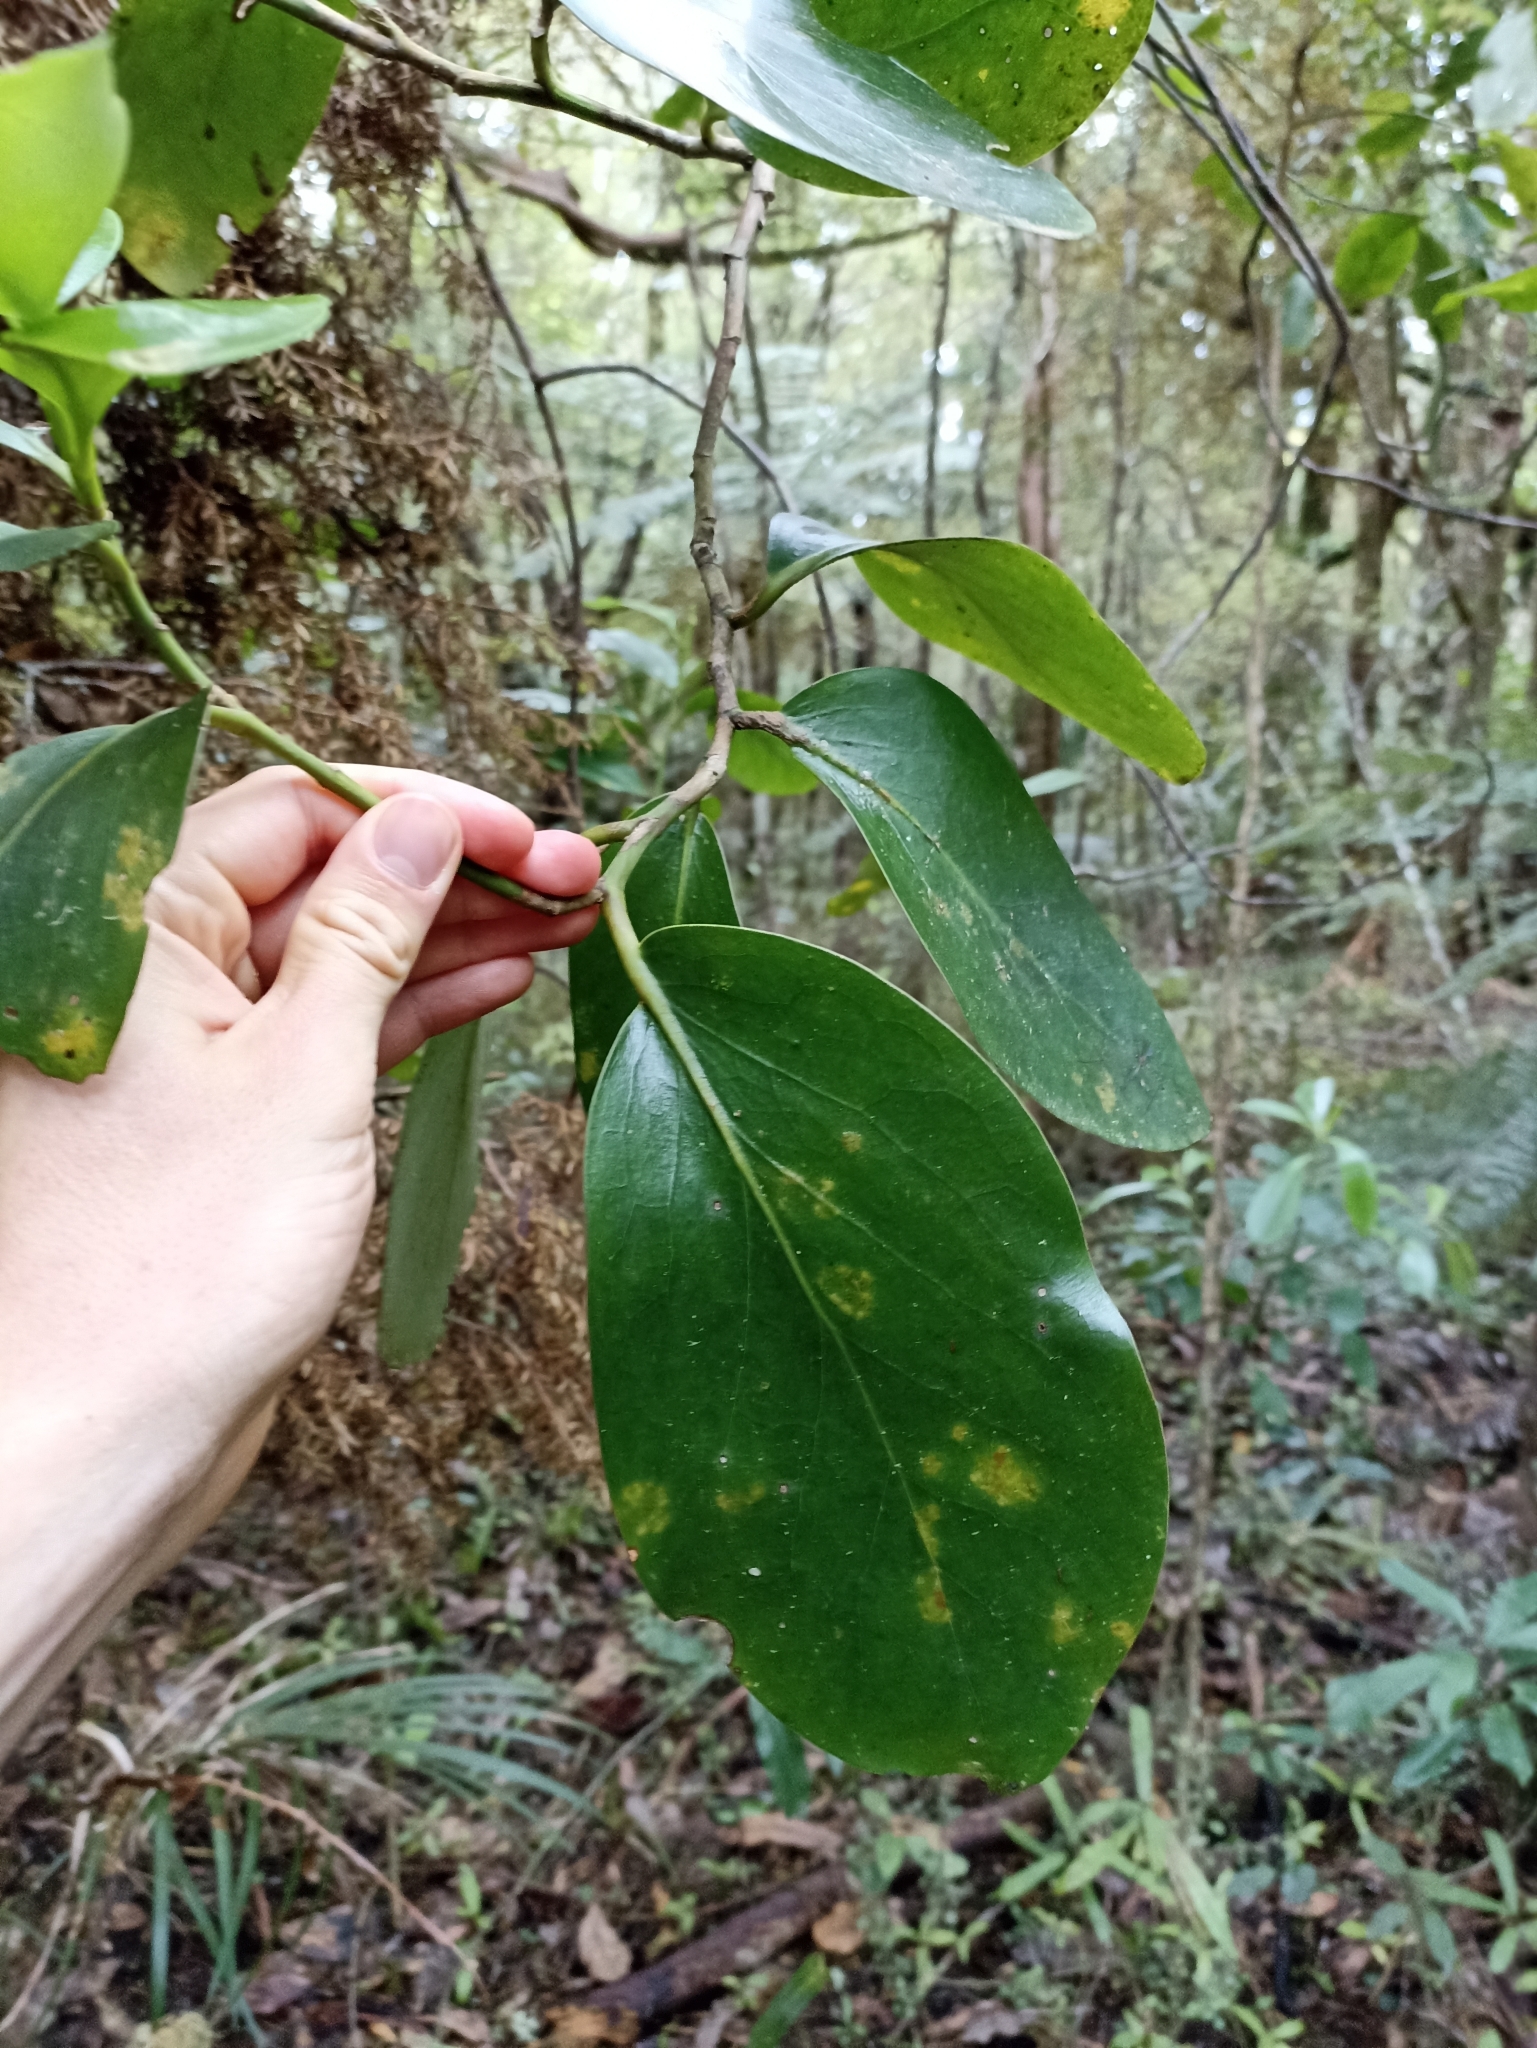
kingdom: Plantae
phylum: Tracheophyta
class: Magnoliopsida
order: Apiales
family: Griseliniaceae
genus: Griselinia
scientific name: Griselinia lucida
